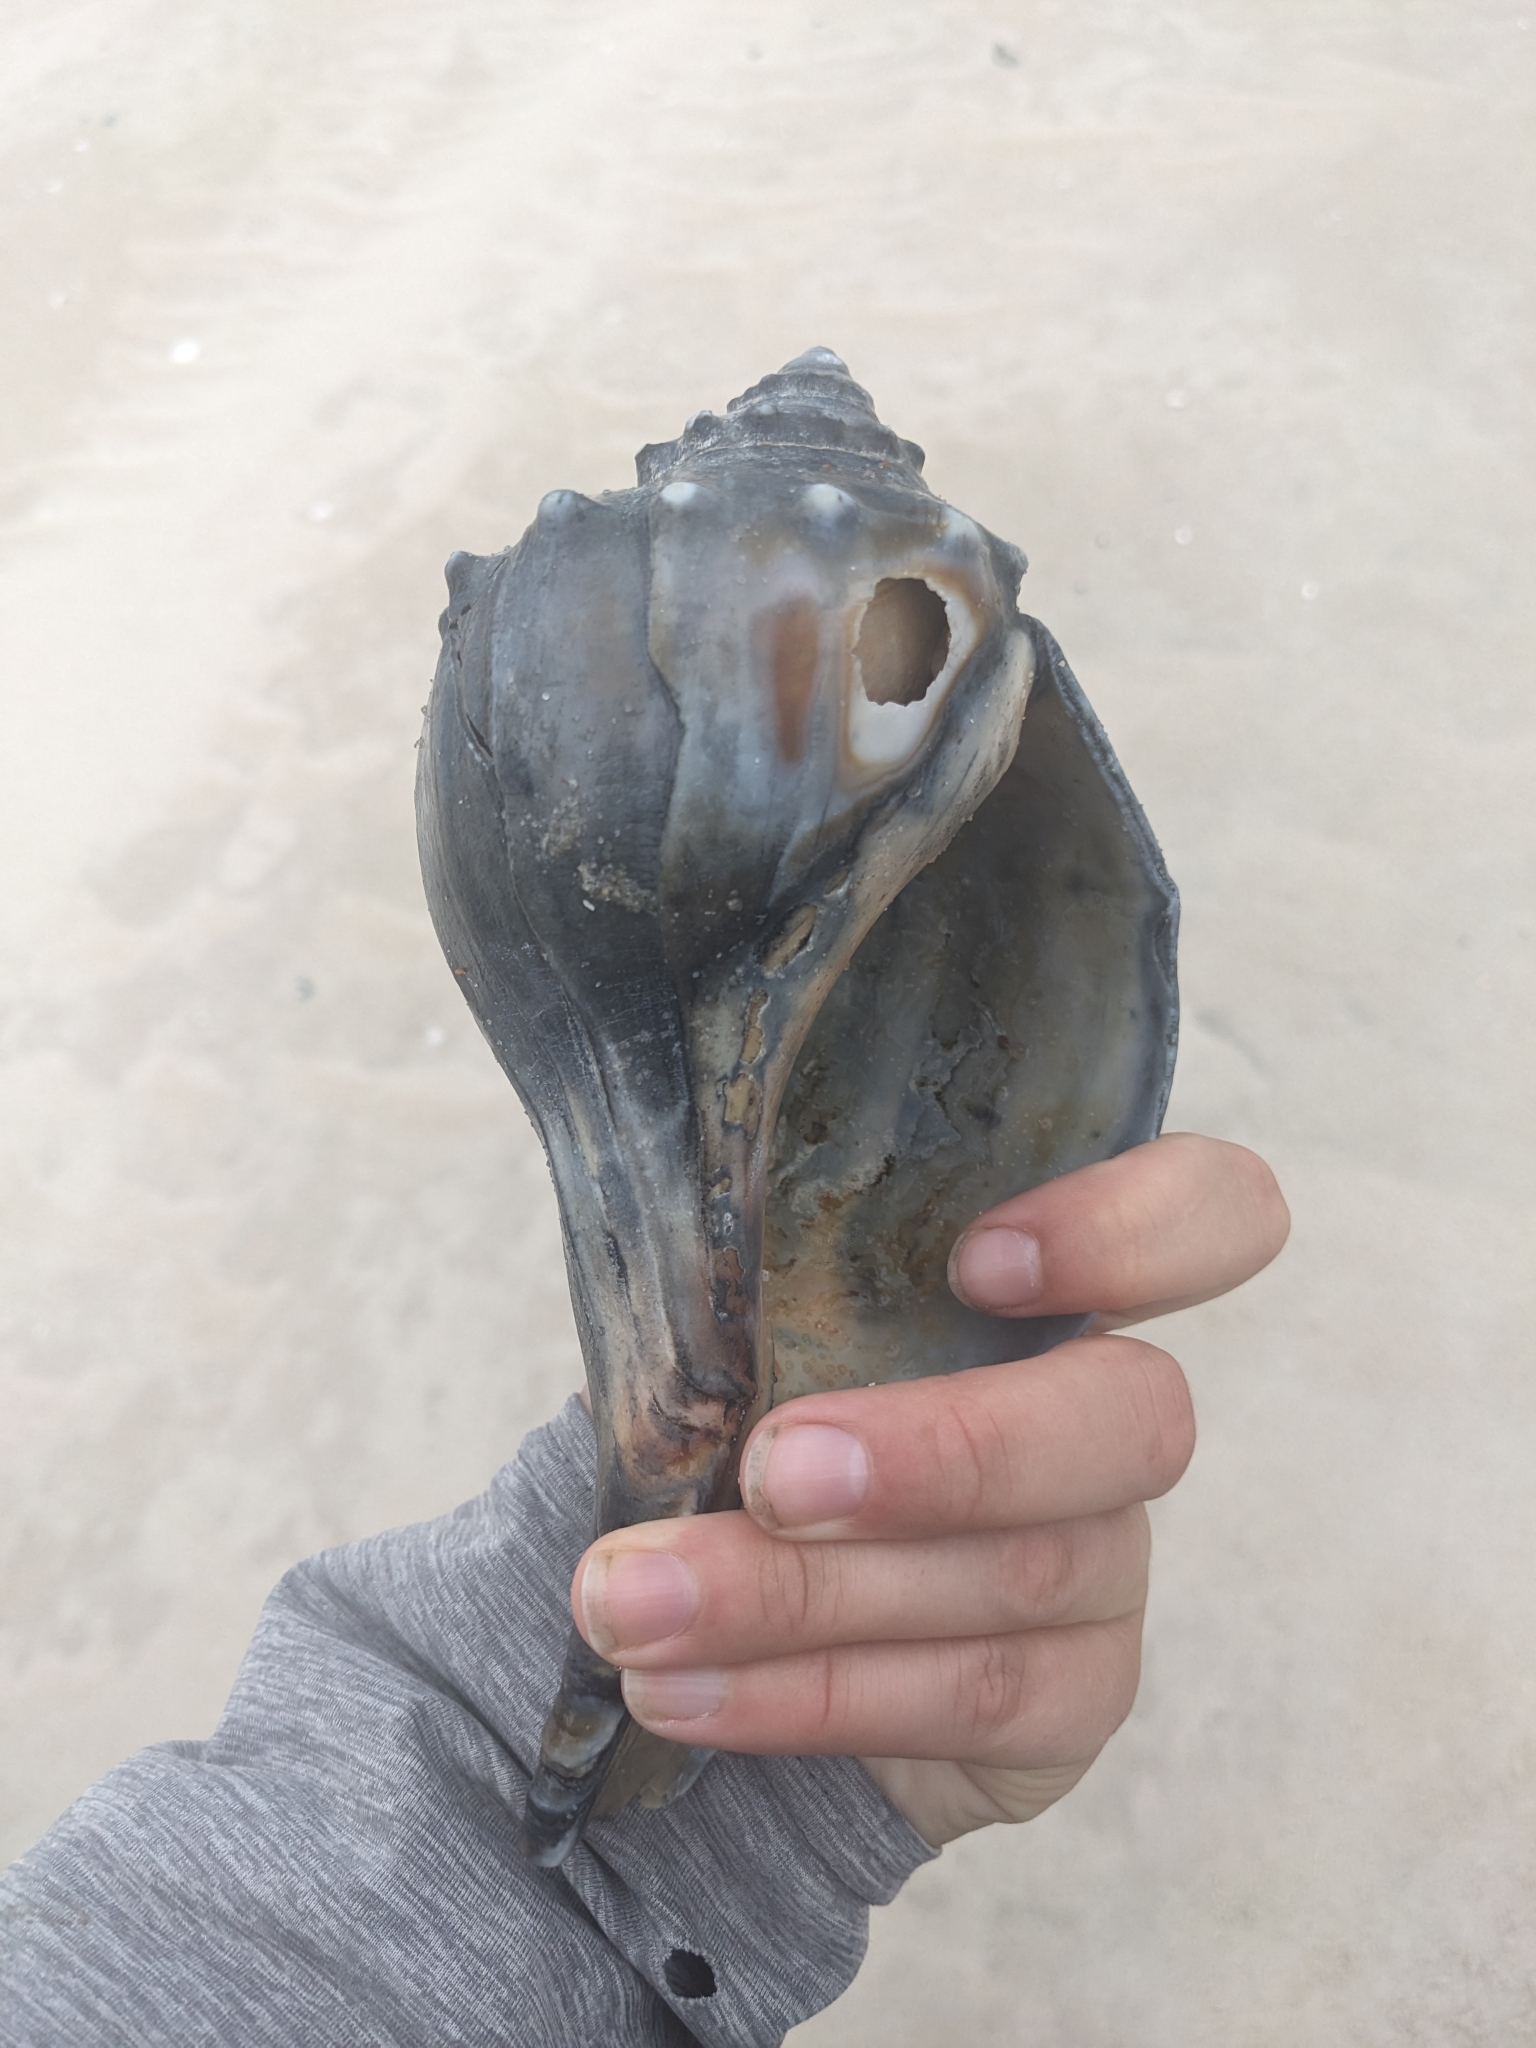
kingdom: Animalia
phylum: Mollusca
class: Gastropoda
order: Neogastropoda
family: Busyconidae
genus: Busycon
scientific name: Busycon carica
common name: Knobbed whelk
